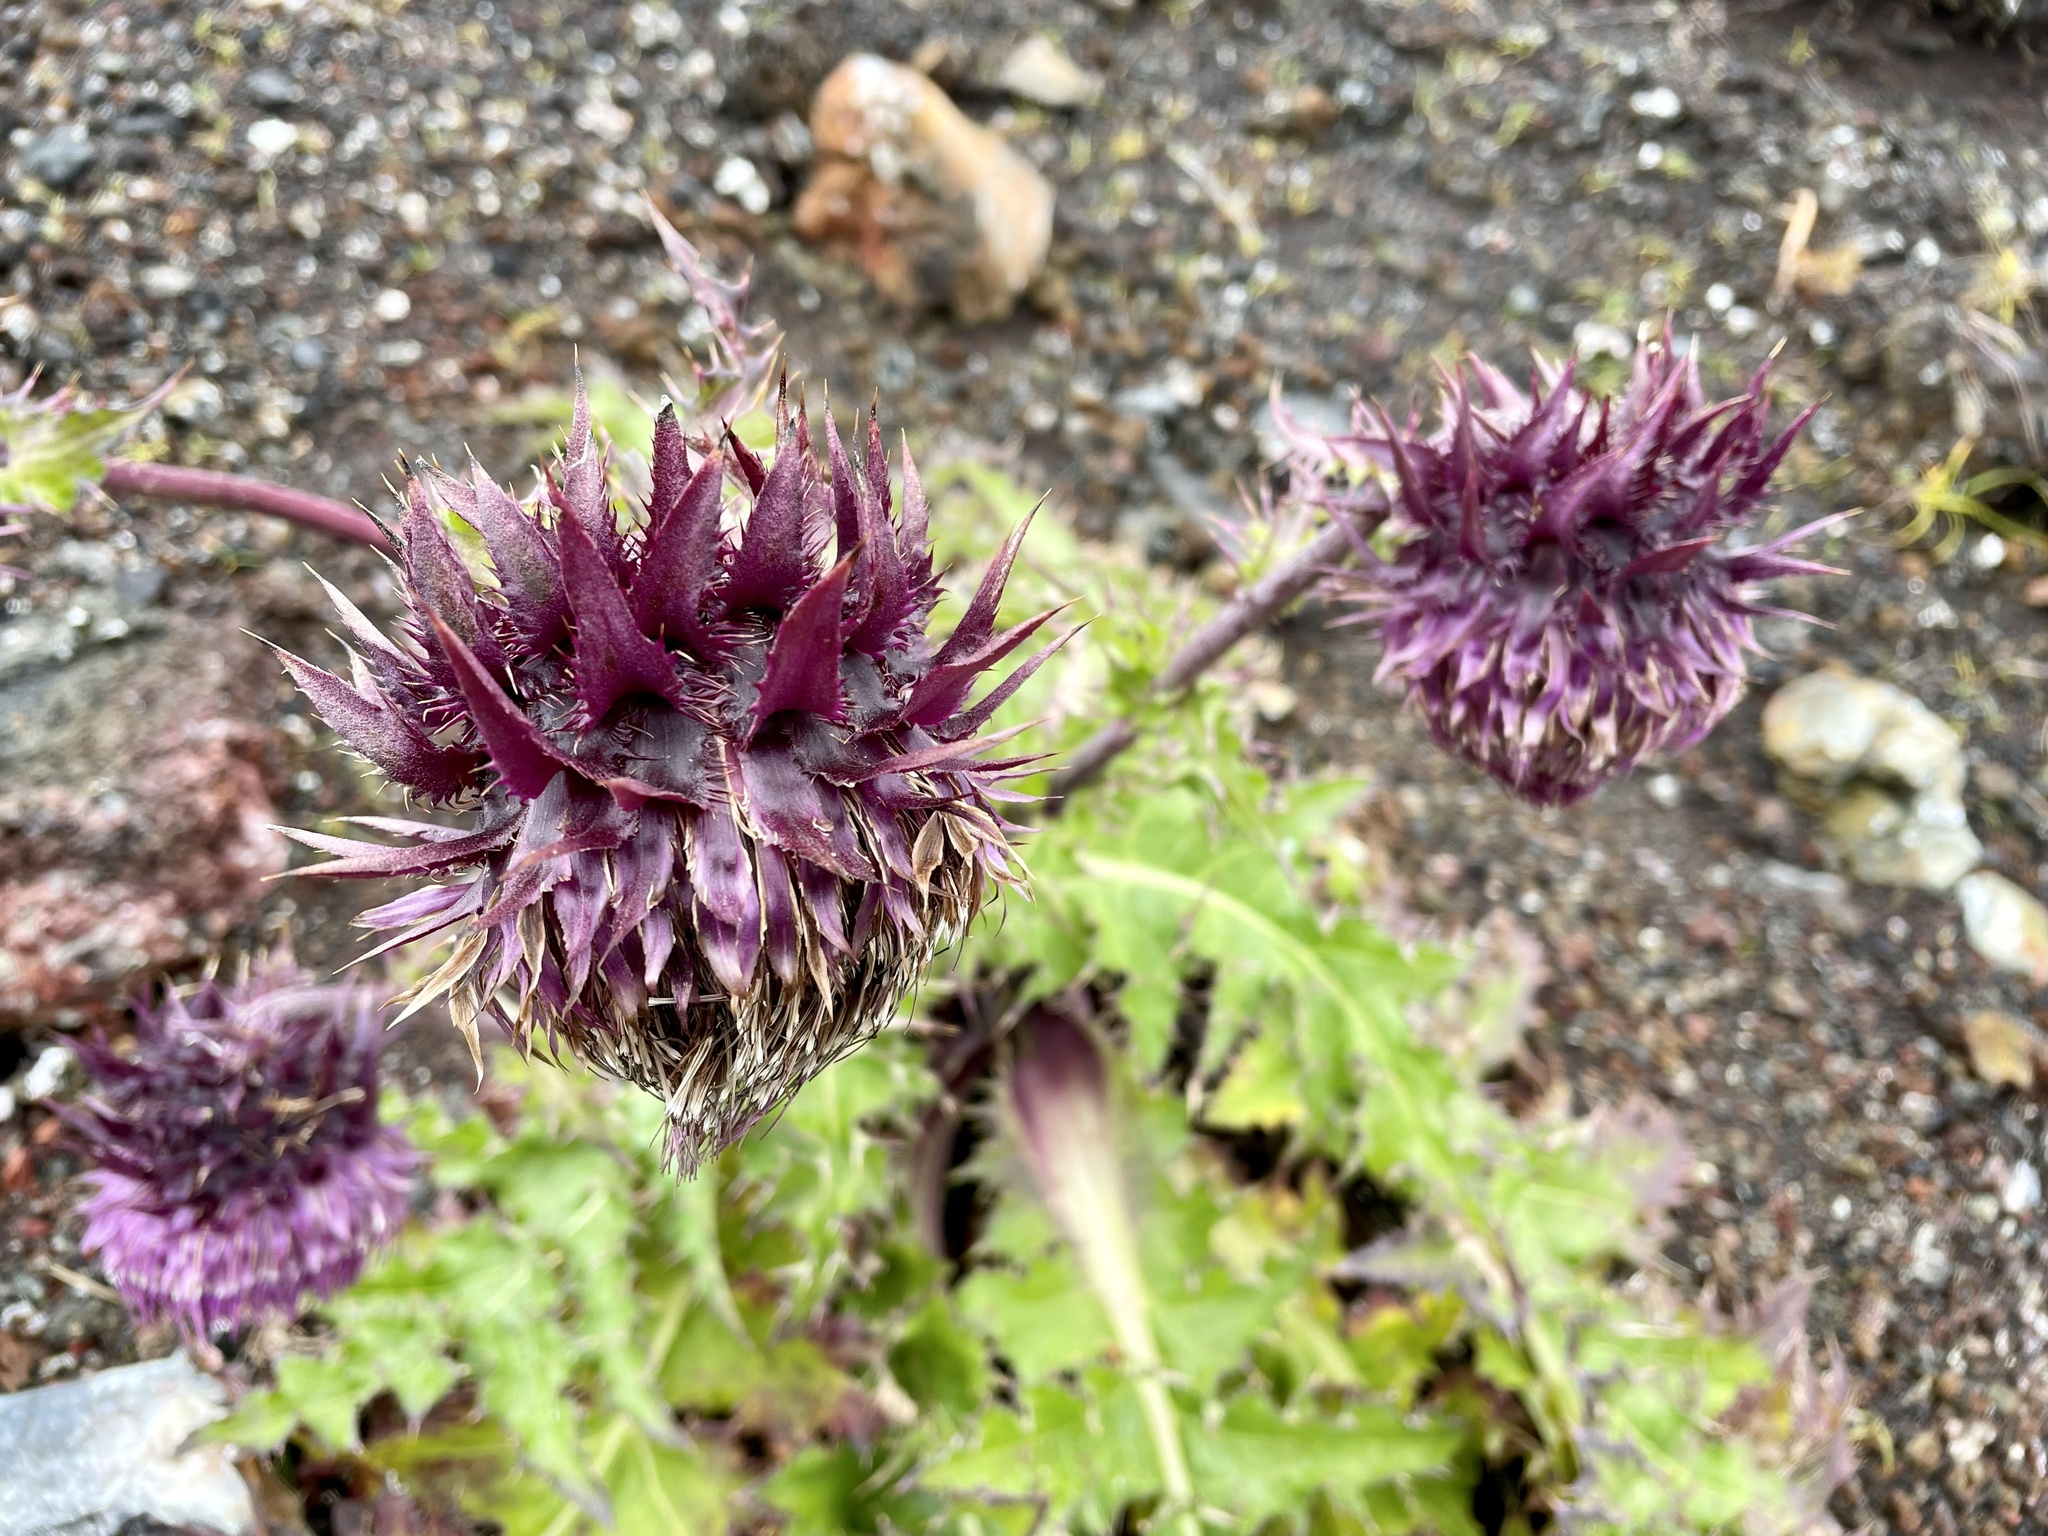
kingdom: Plantae
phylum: Tracheophyta
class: Magnoliopsida
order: Asterales
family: Asteraceae
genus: Cirsium
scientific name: Cirsium purpuratum
